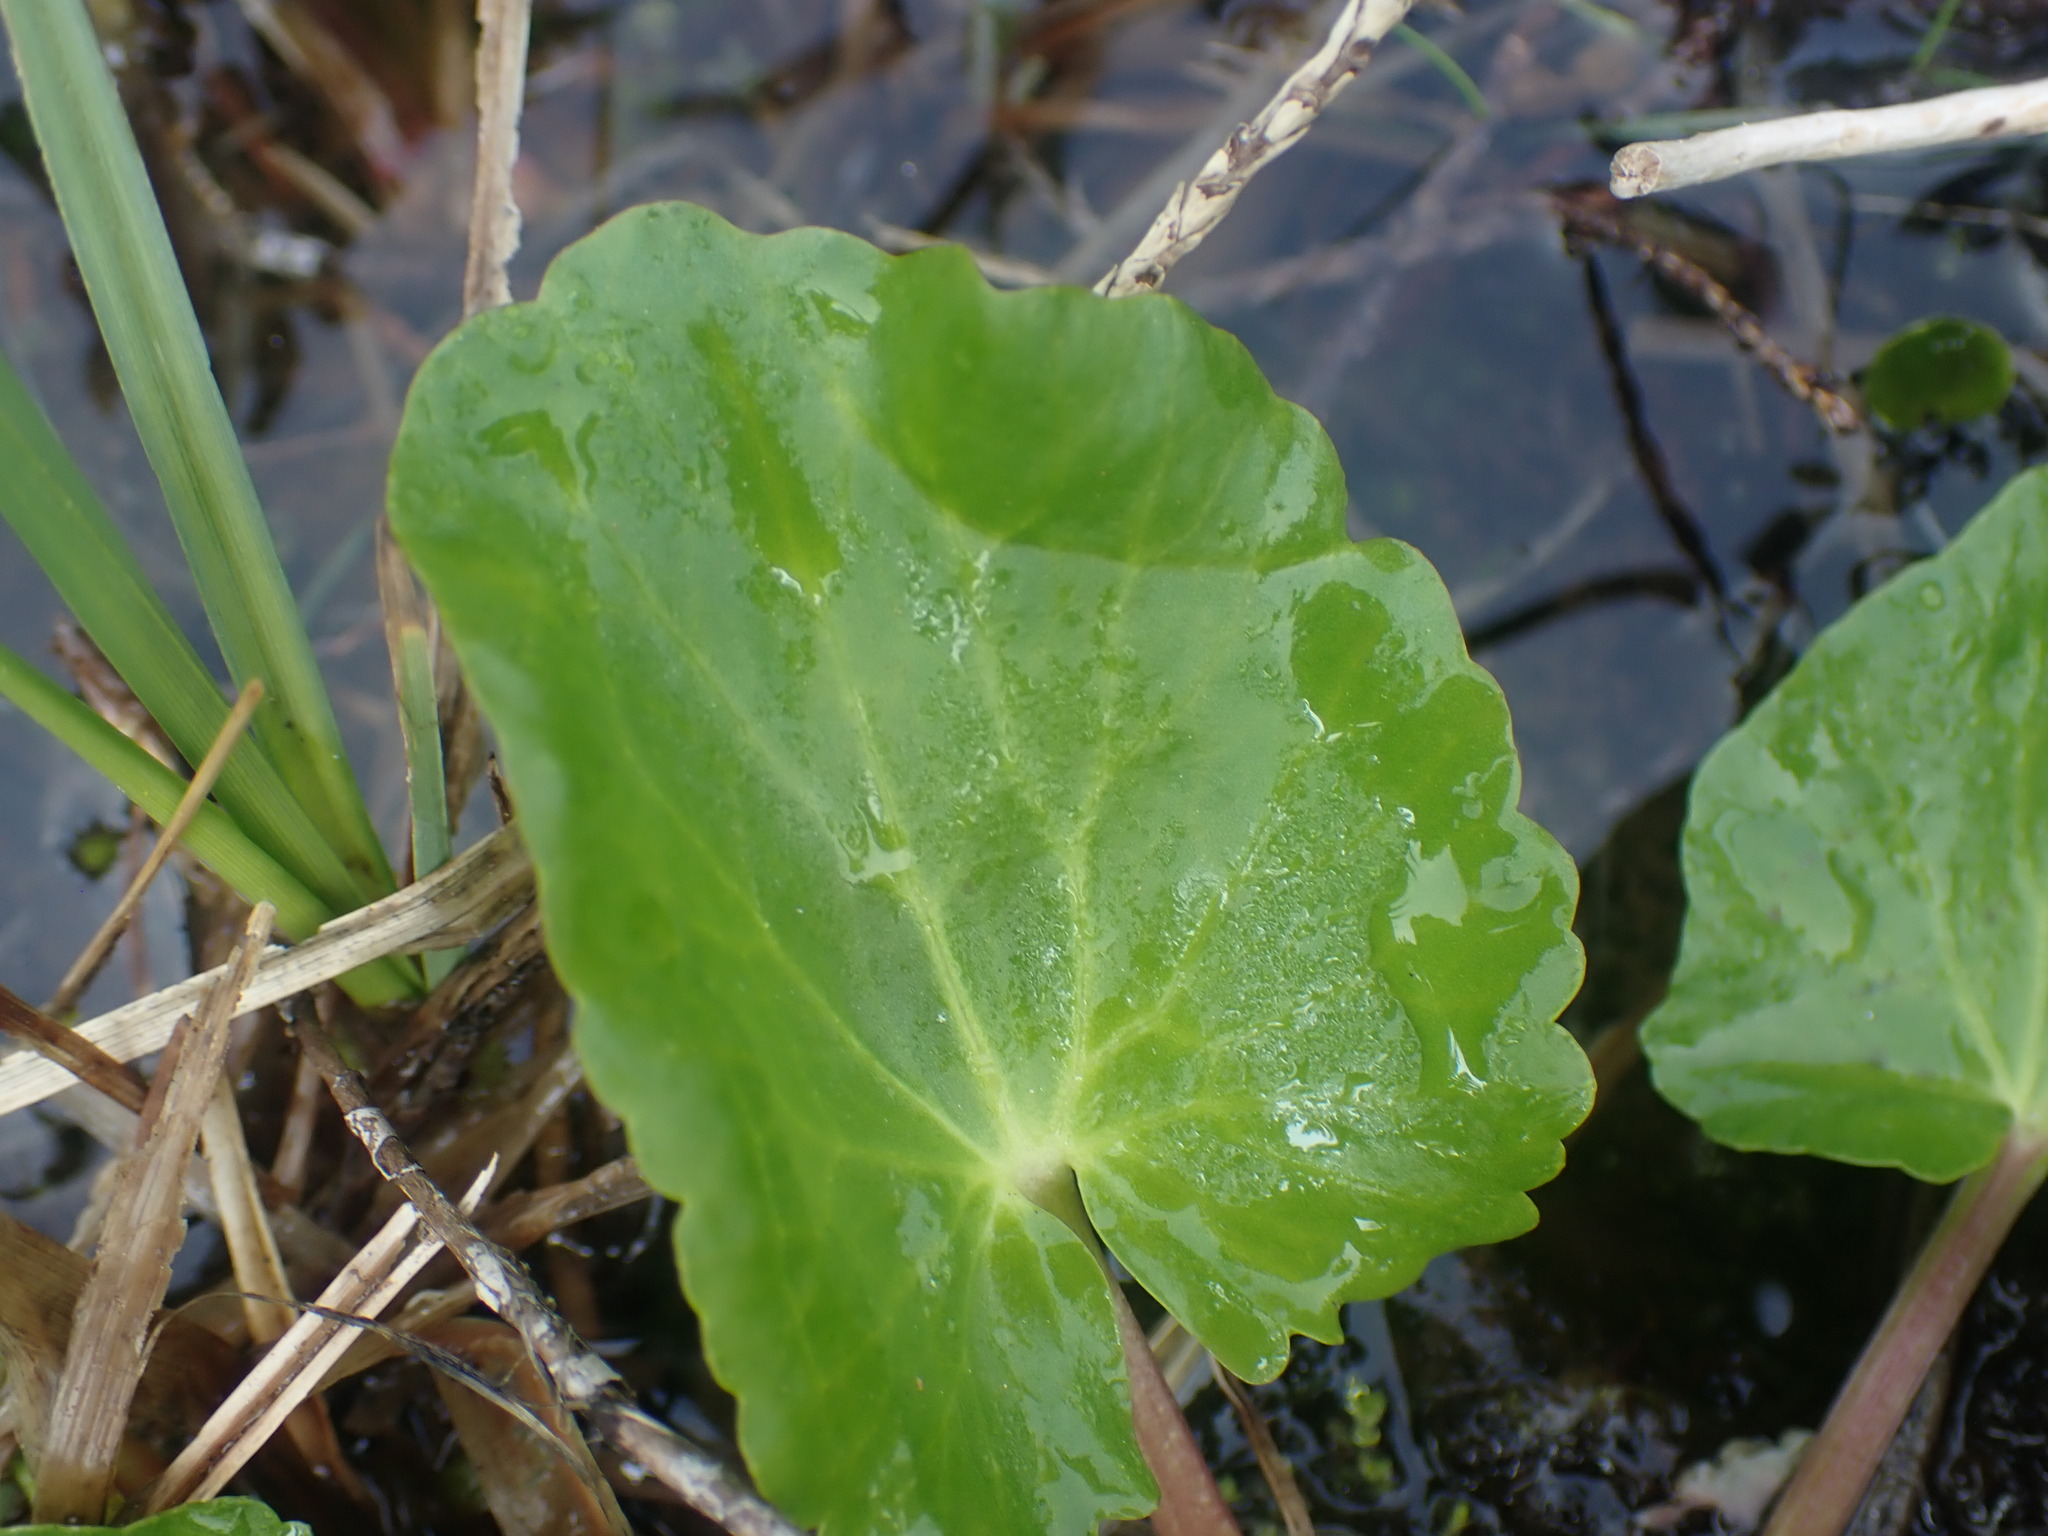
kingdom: Plantae
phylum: Tracheophyta
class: Magnoliopsida
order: Ranunculales
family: Ranunculaceae
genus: Caltha
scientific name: Caltha leptosepala
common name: Elkslip
